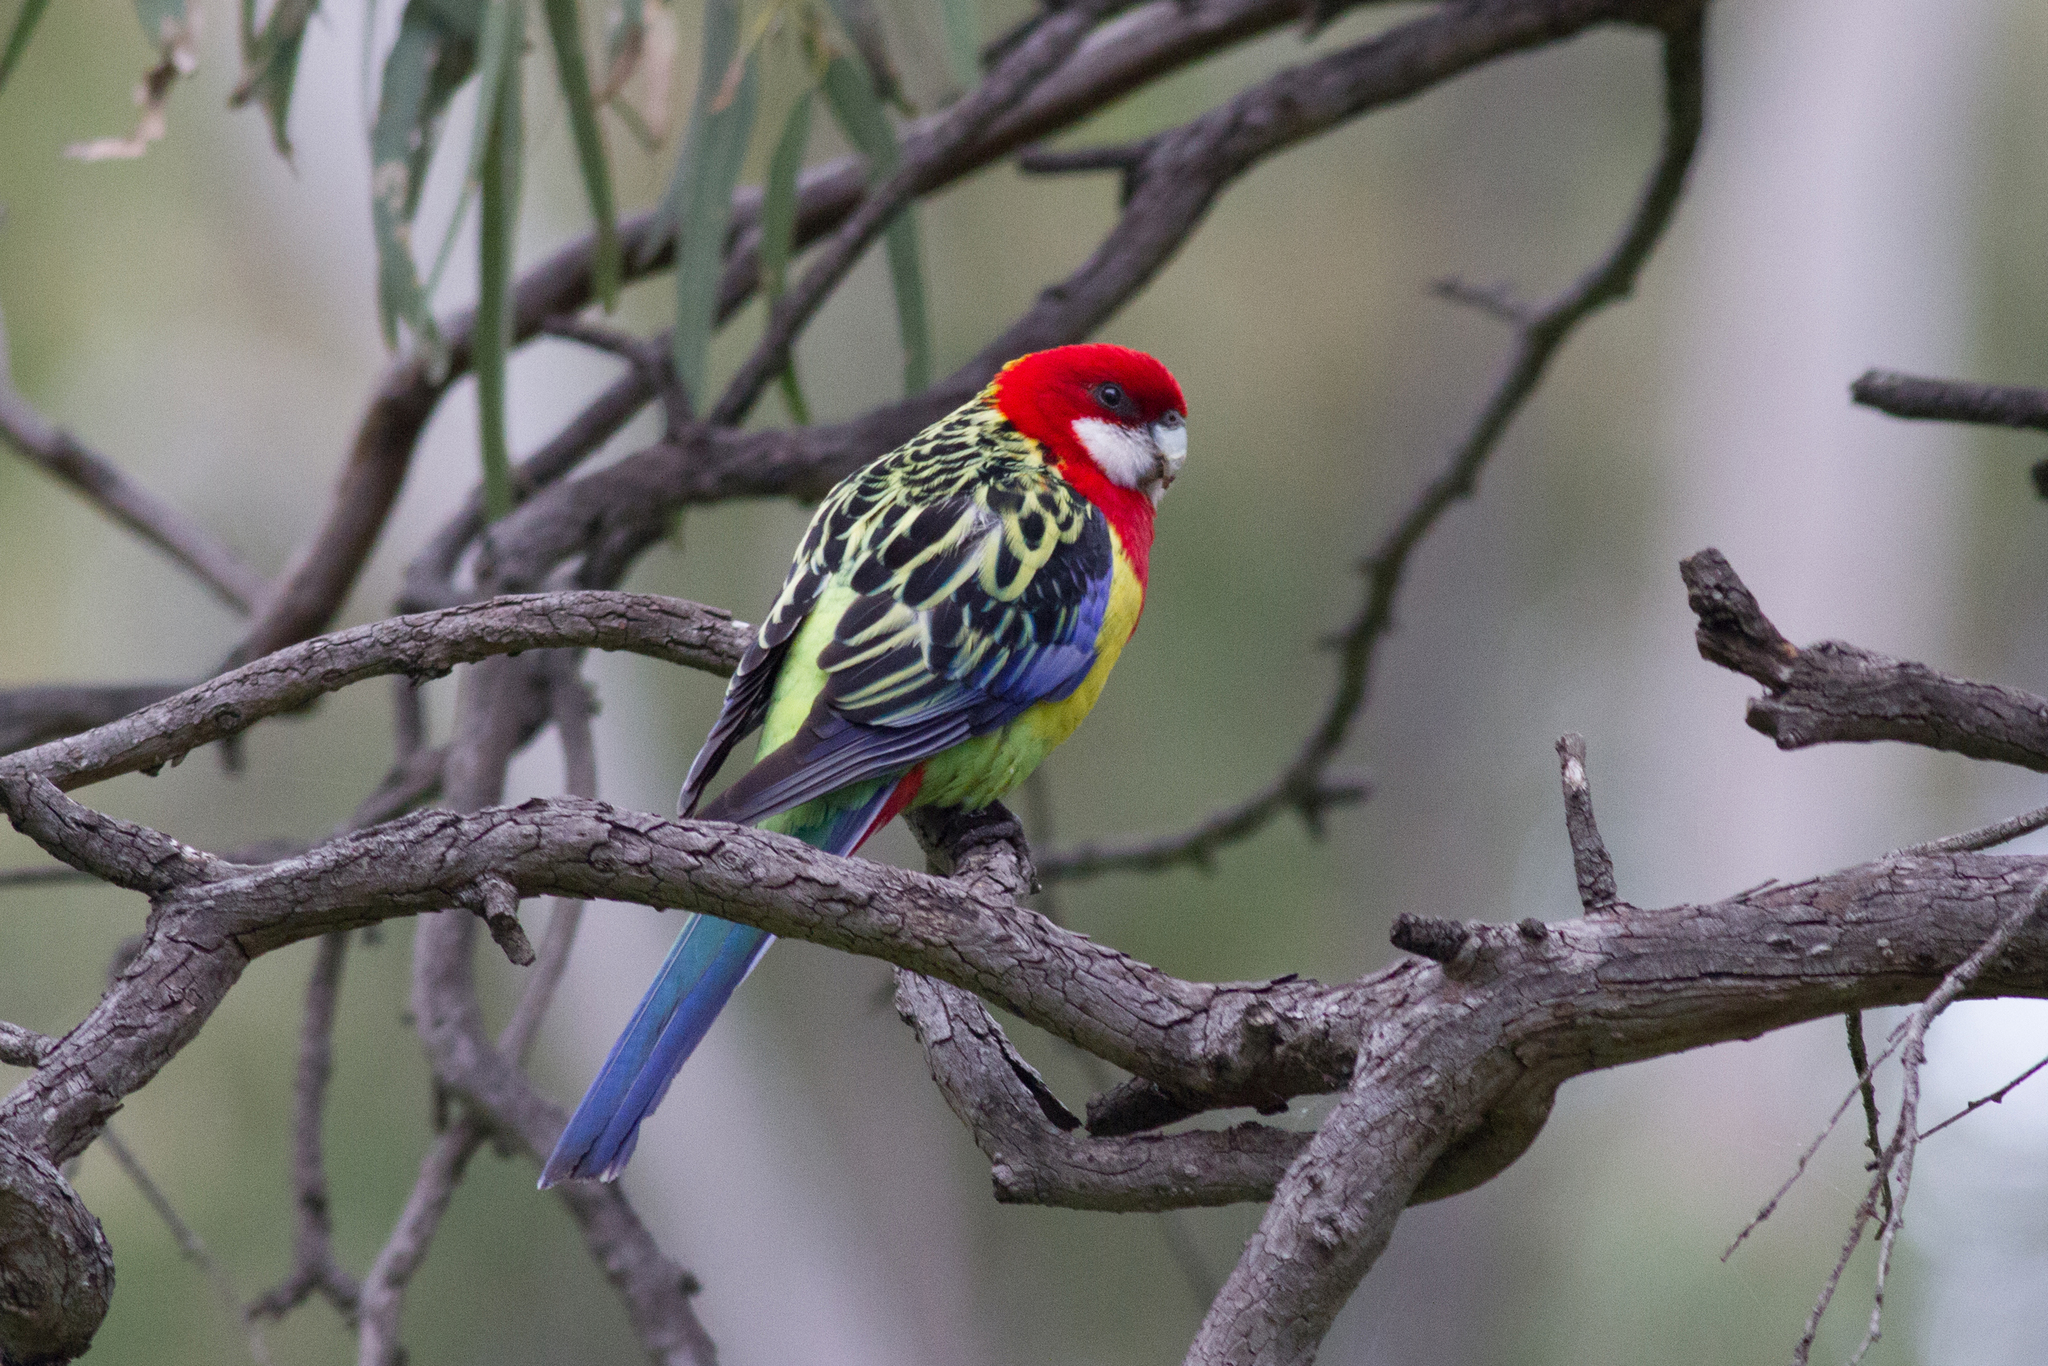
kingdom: Animalia
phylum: Chordata
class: Aves
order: Psittaciformes
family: Psittacidae
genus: Platycercus
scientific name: Platycercus eximius
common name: Eastern rosella
